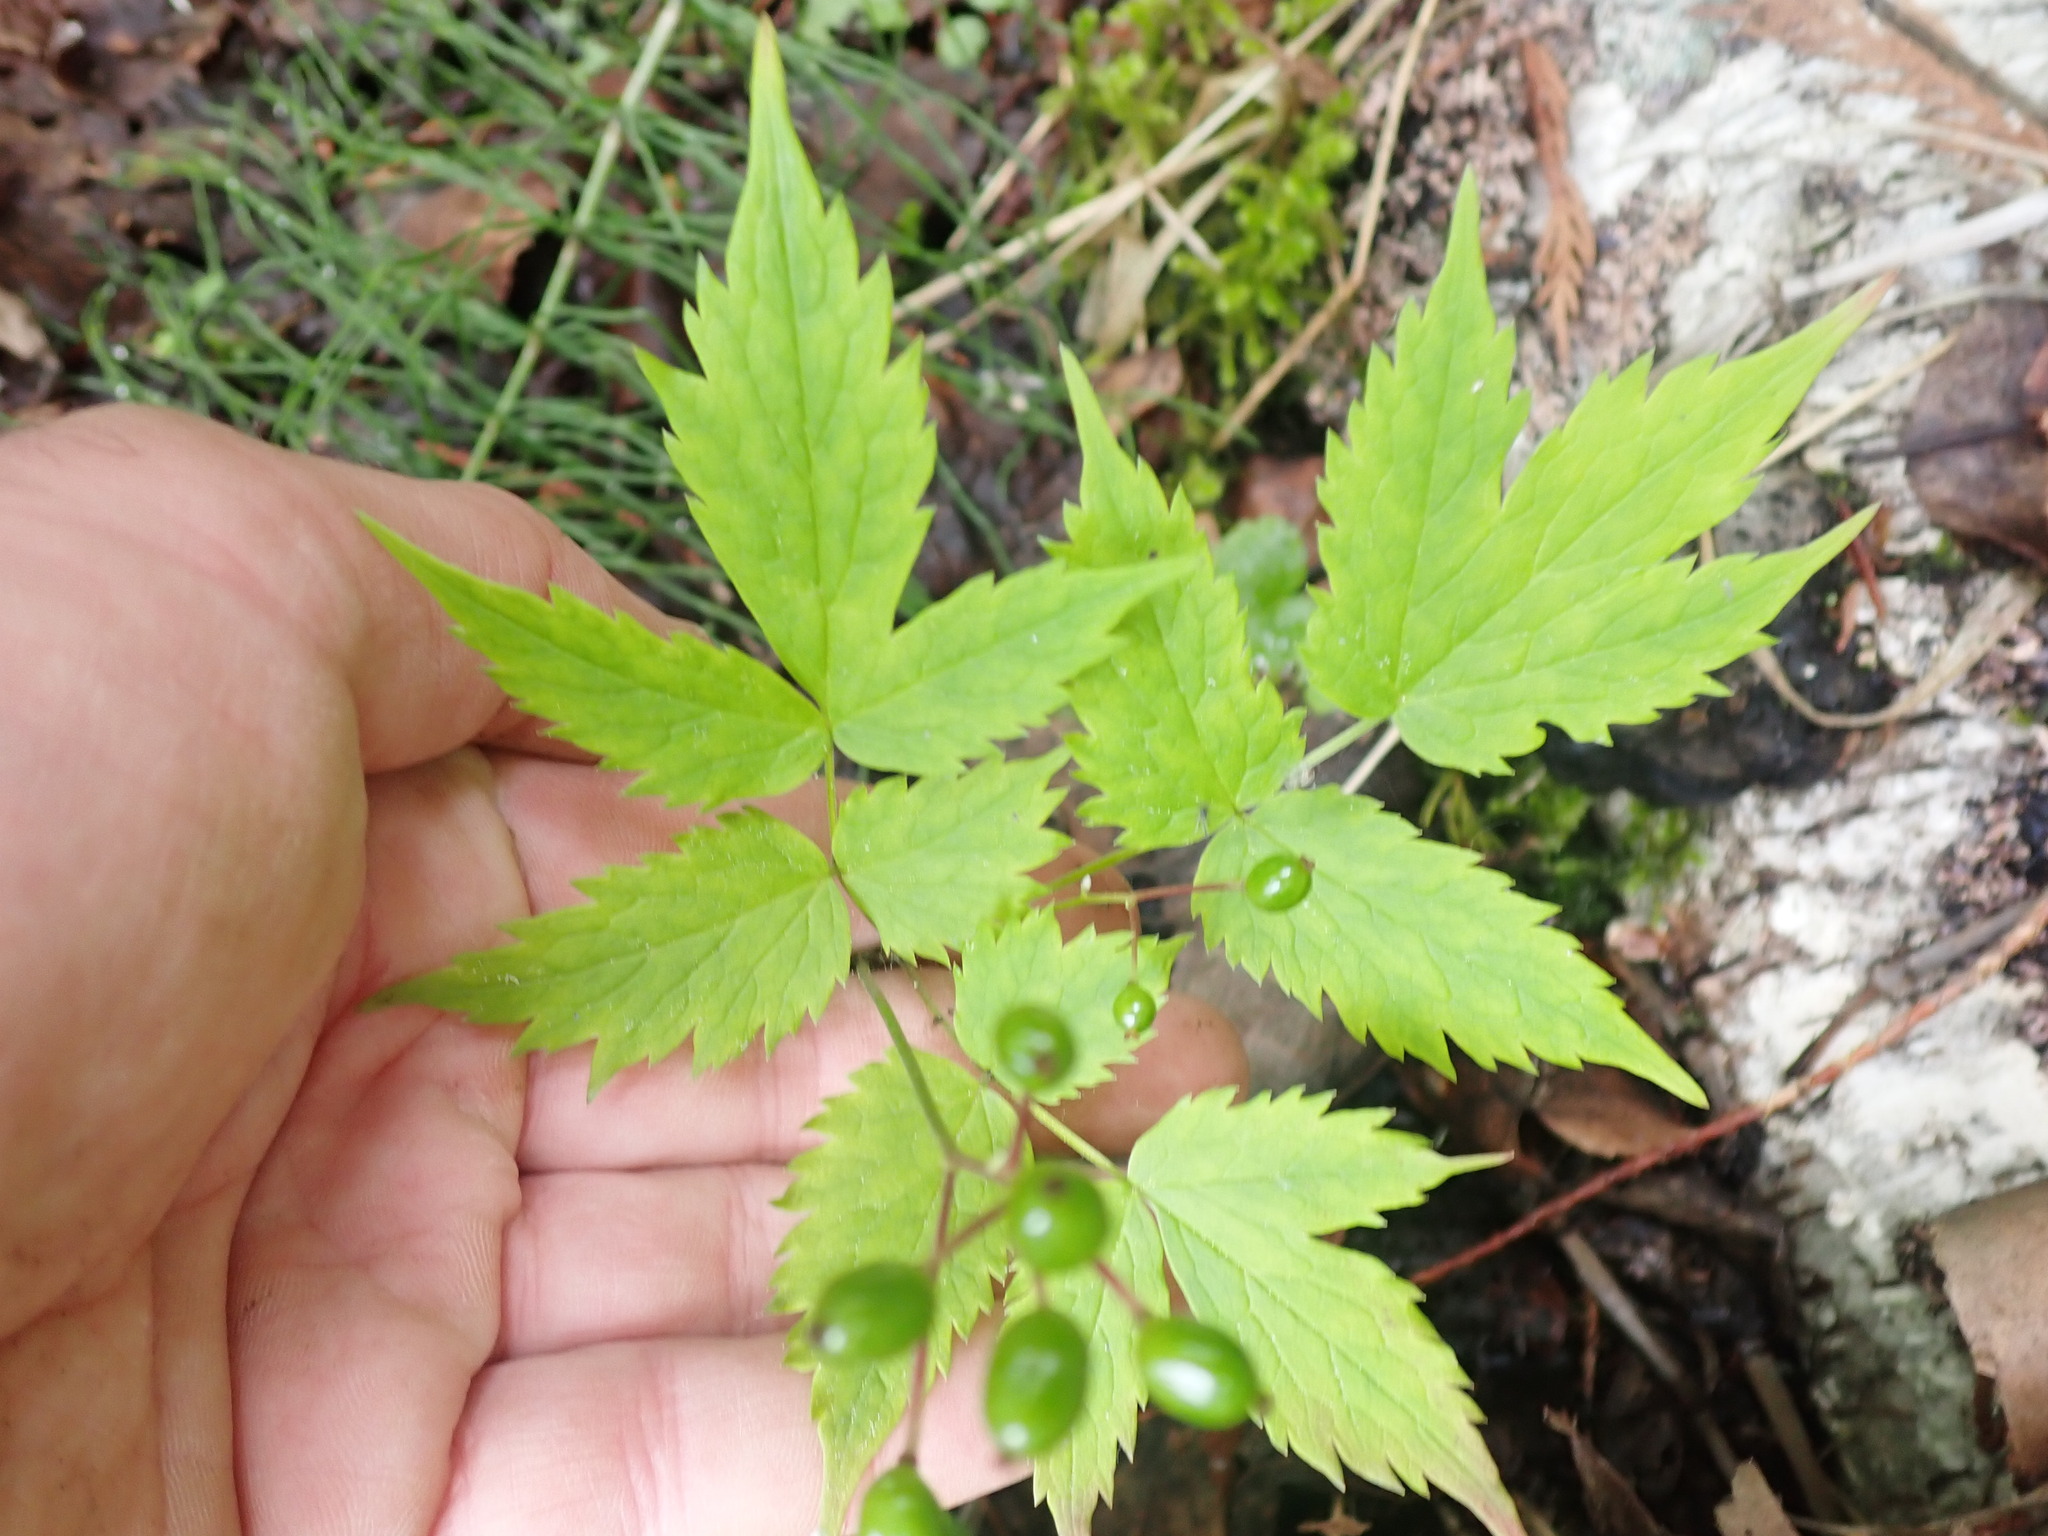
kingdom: Plantae
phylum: Tracheophyta
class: Magnoliopsida
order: Ranunculales
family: Ranunculaceae
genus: Actaea
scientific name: Actaea rubra
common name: Red baneberry
